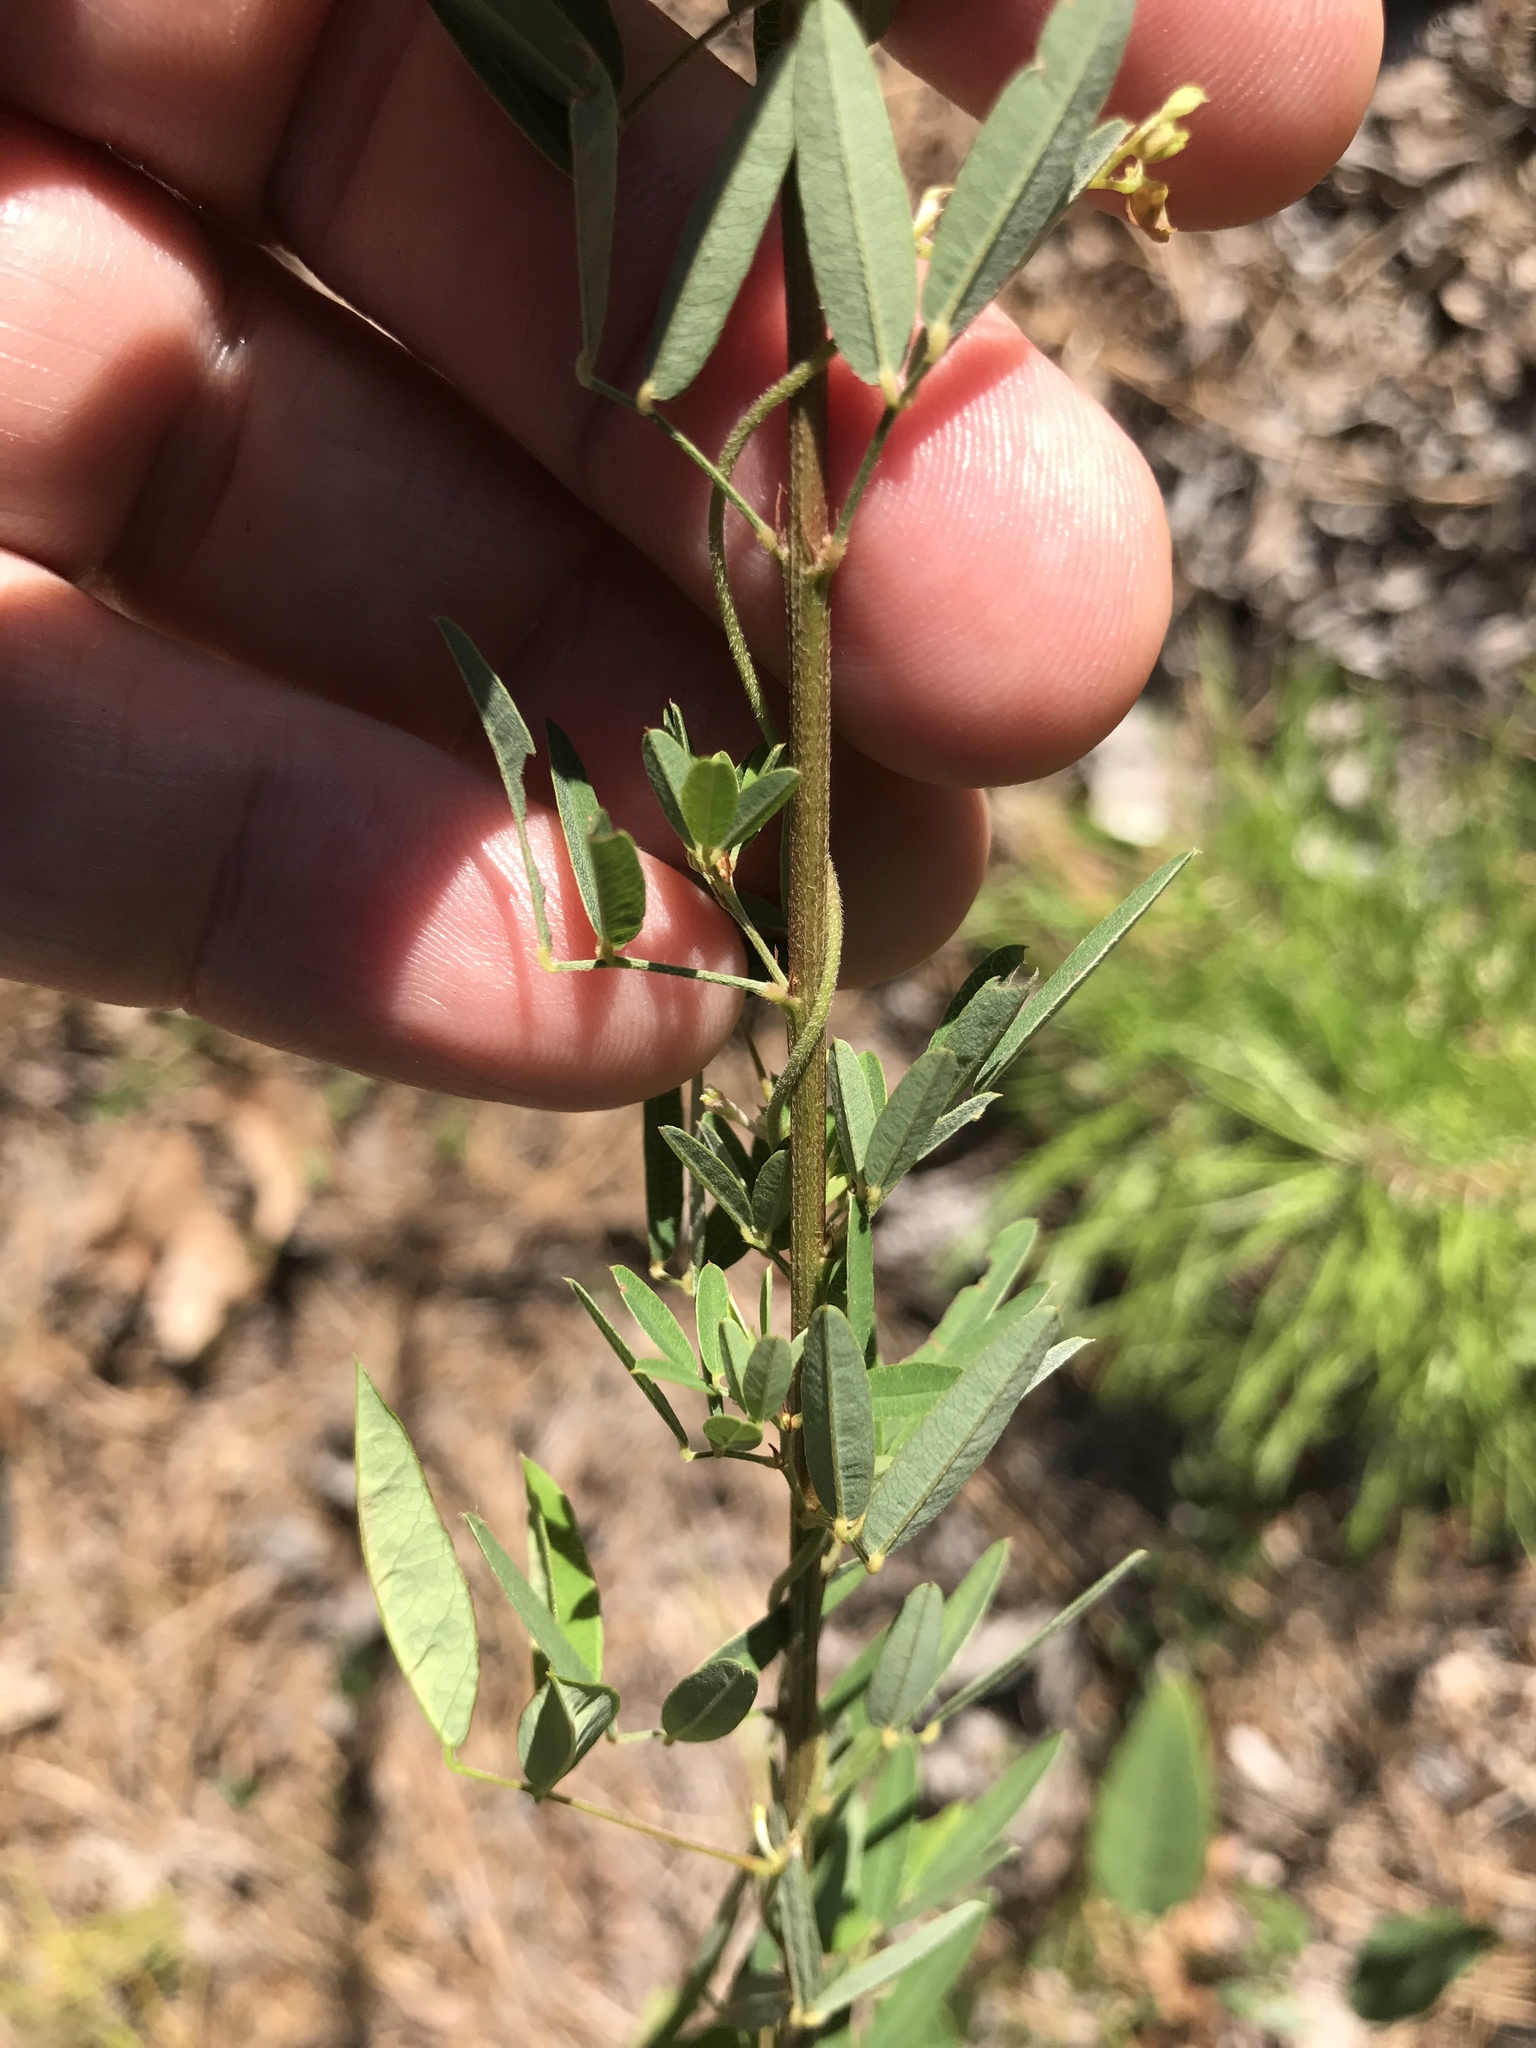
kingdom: Plantae
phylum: Tracheophyta
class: Magnoliopsida
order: Fabales
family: Fabaceae
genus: Lespedeza
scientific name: Lespedeza virginica
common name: Slender bush-clover
